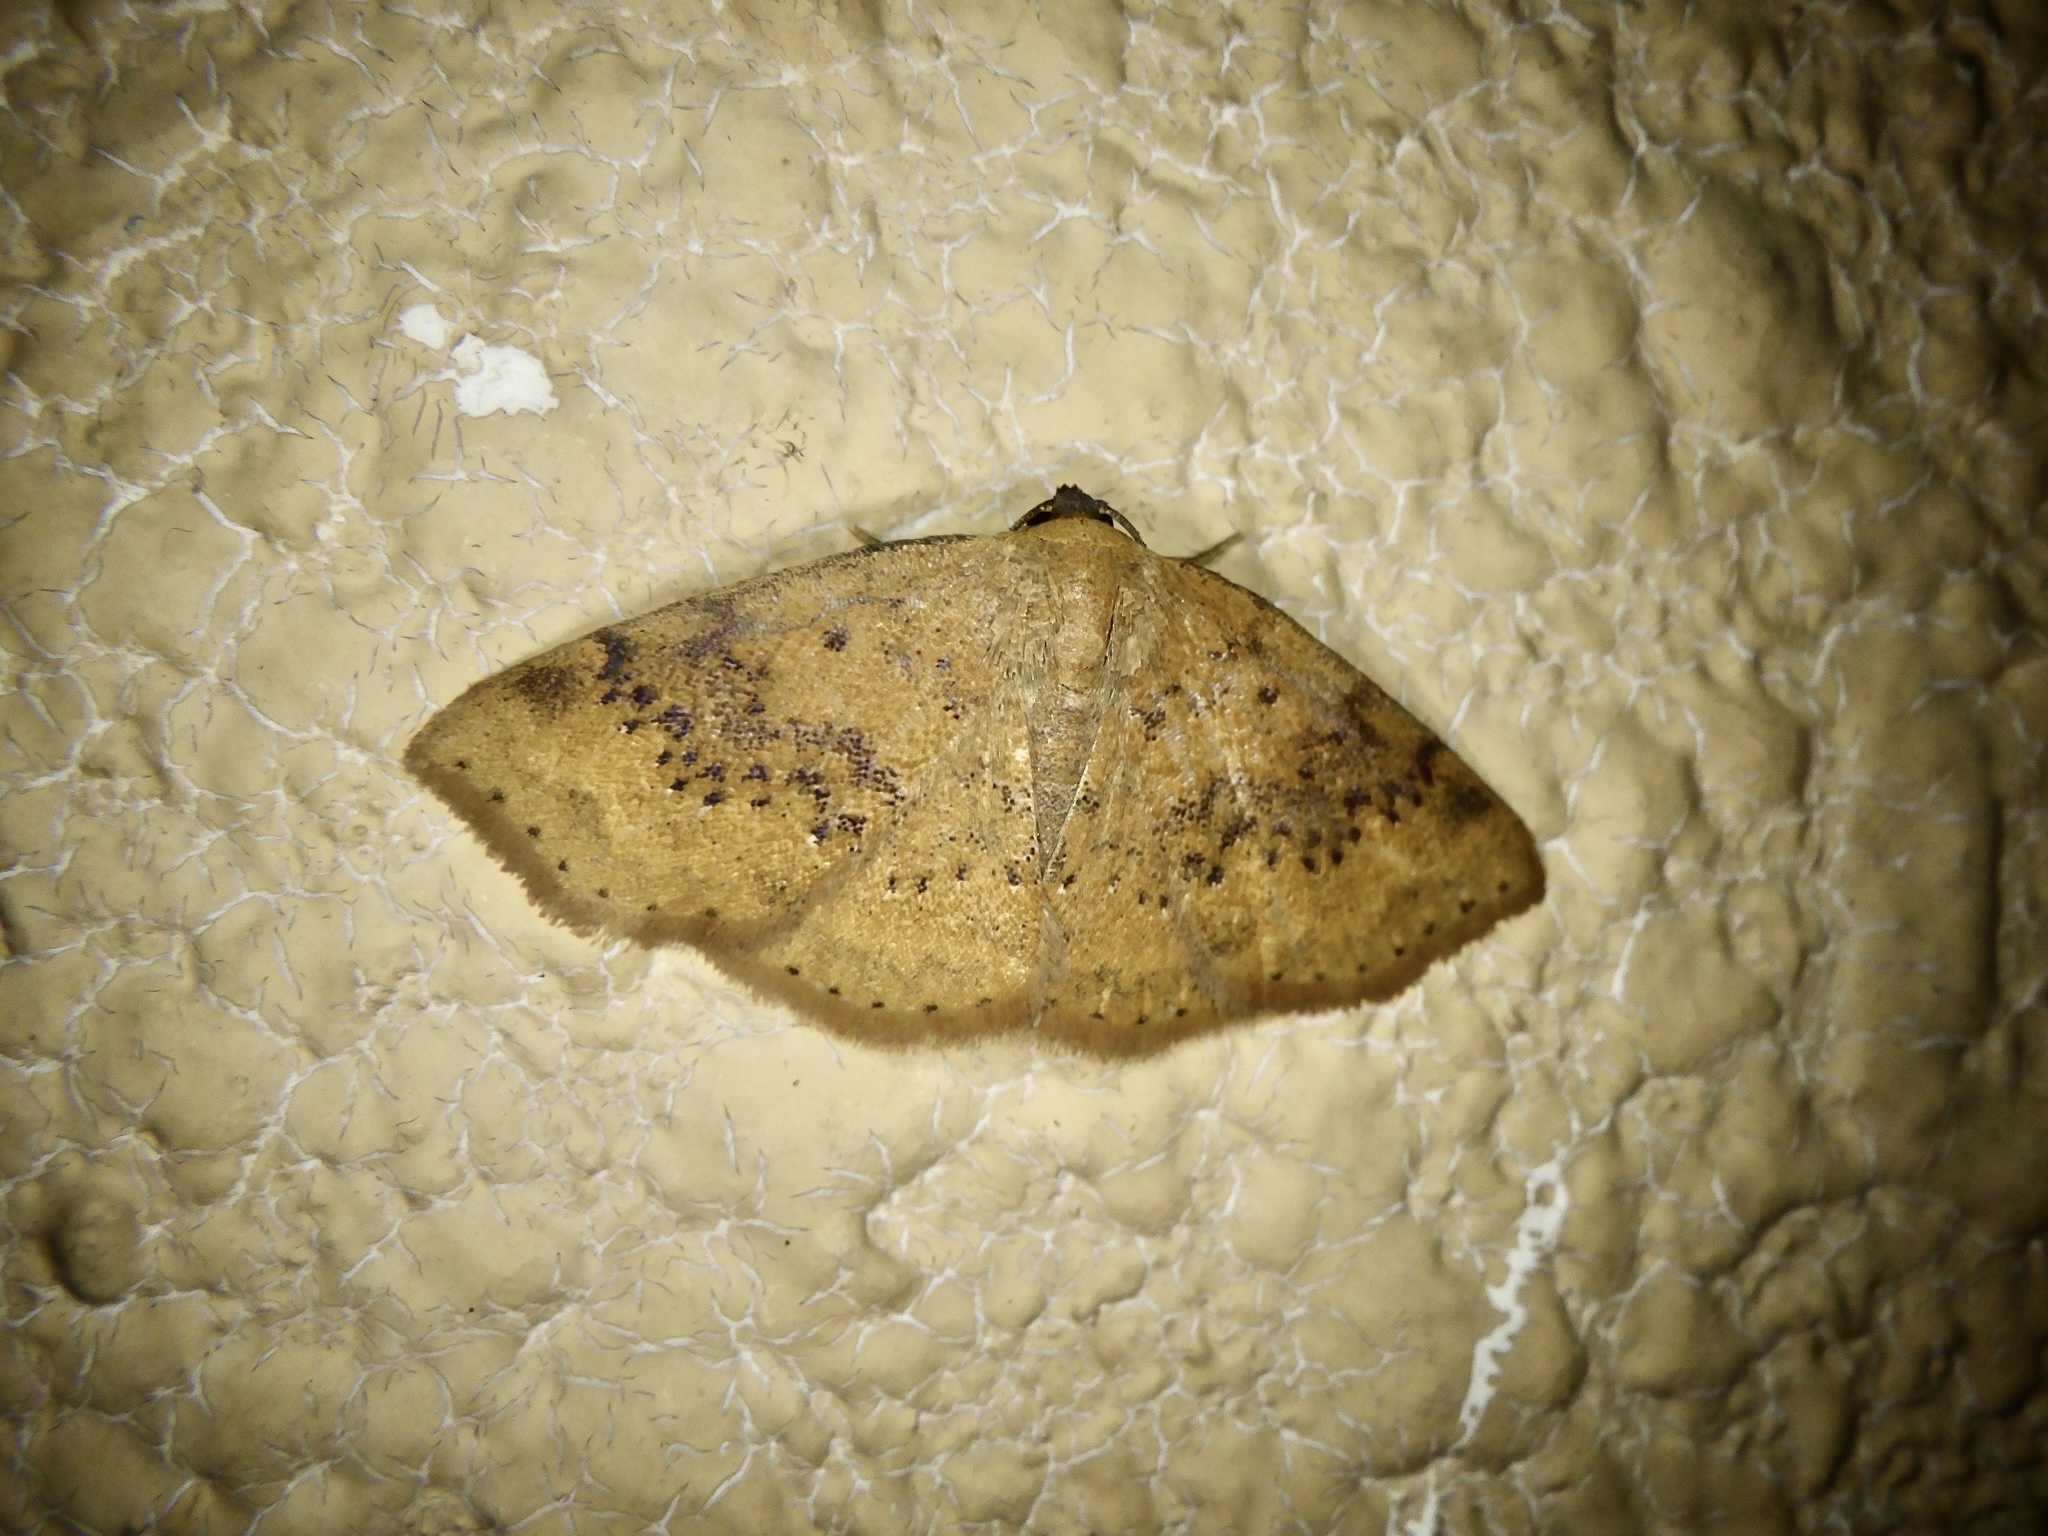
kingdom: Animalia
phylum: Arthropoda
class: Insecta
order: Lepidoptera
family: Noctuidae
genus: Oruza
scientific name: Oruza brunnea
